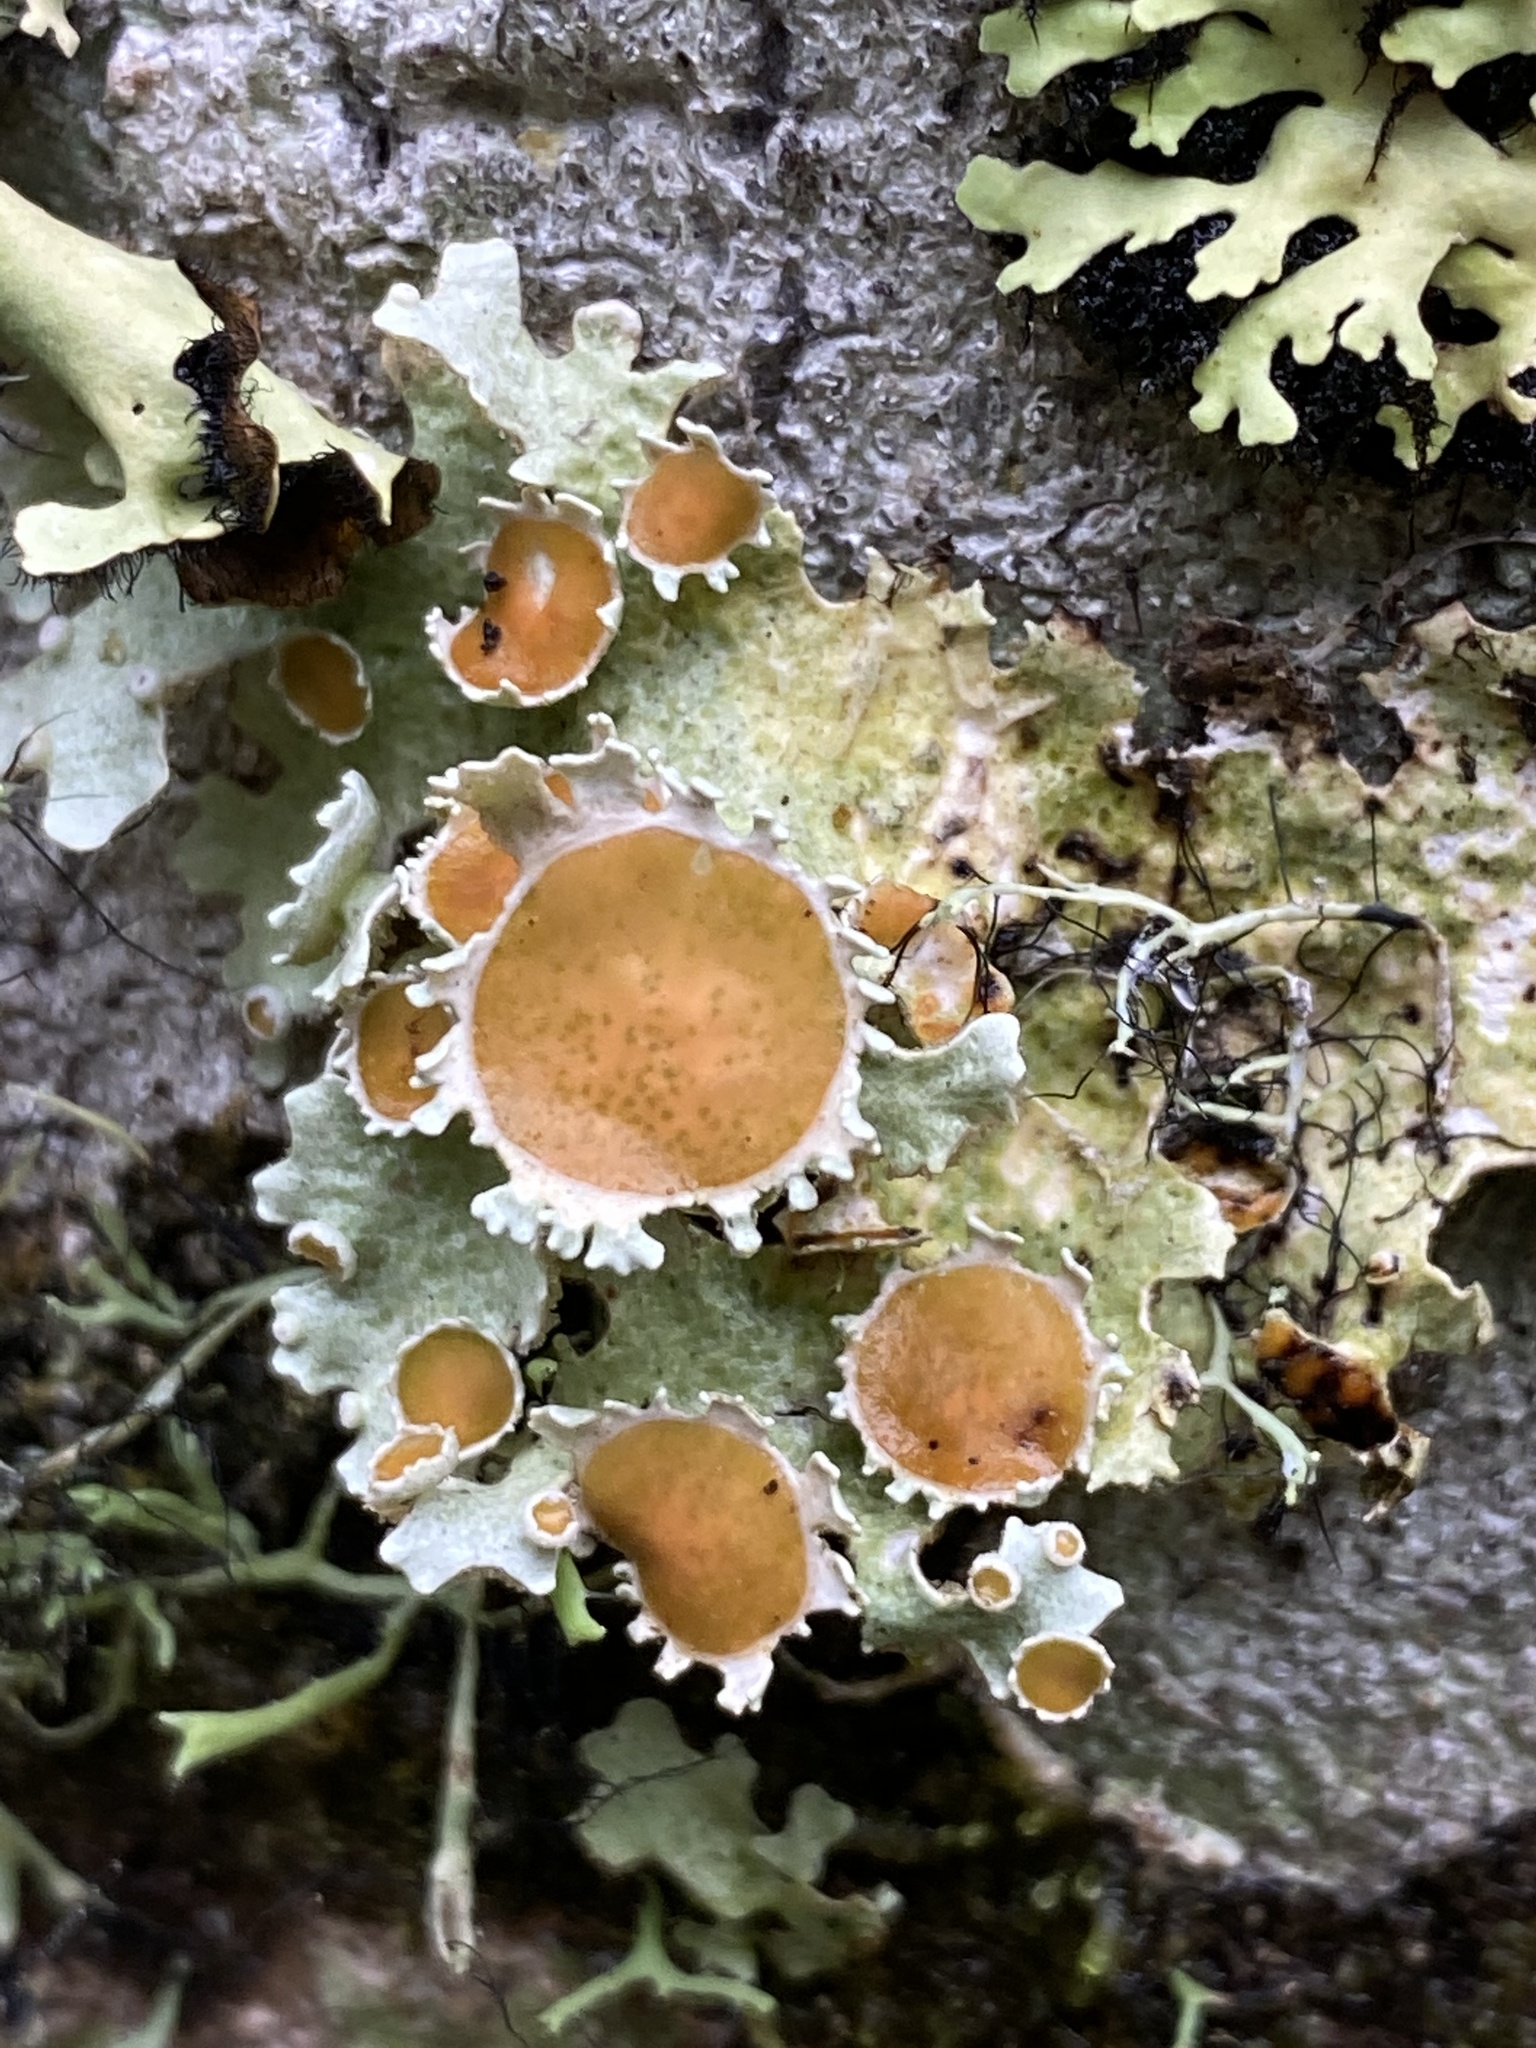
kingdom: Fungi
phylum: Ascomycota
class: Lecanoromycetes
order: Peltigerales
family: Lobariaceae
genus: Lobariella
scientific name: Lobariella pallida
